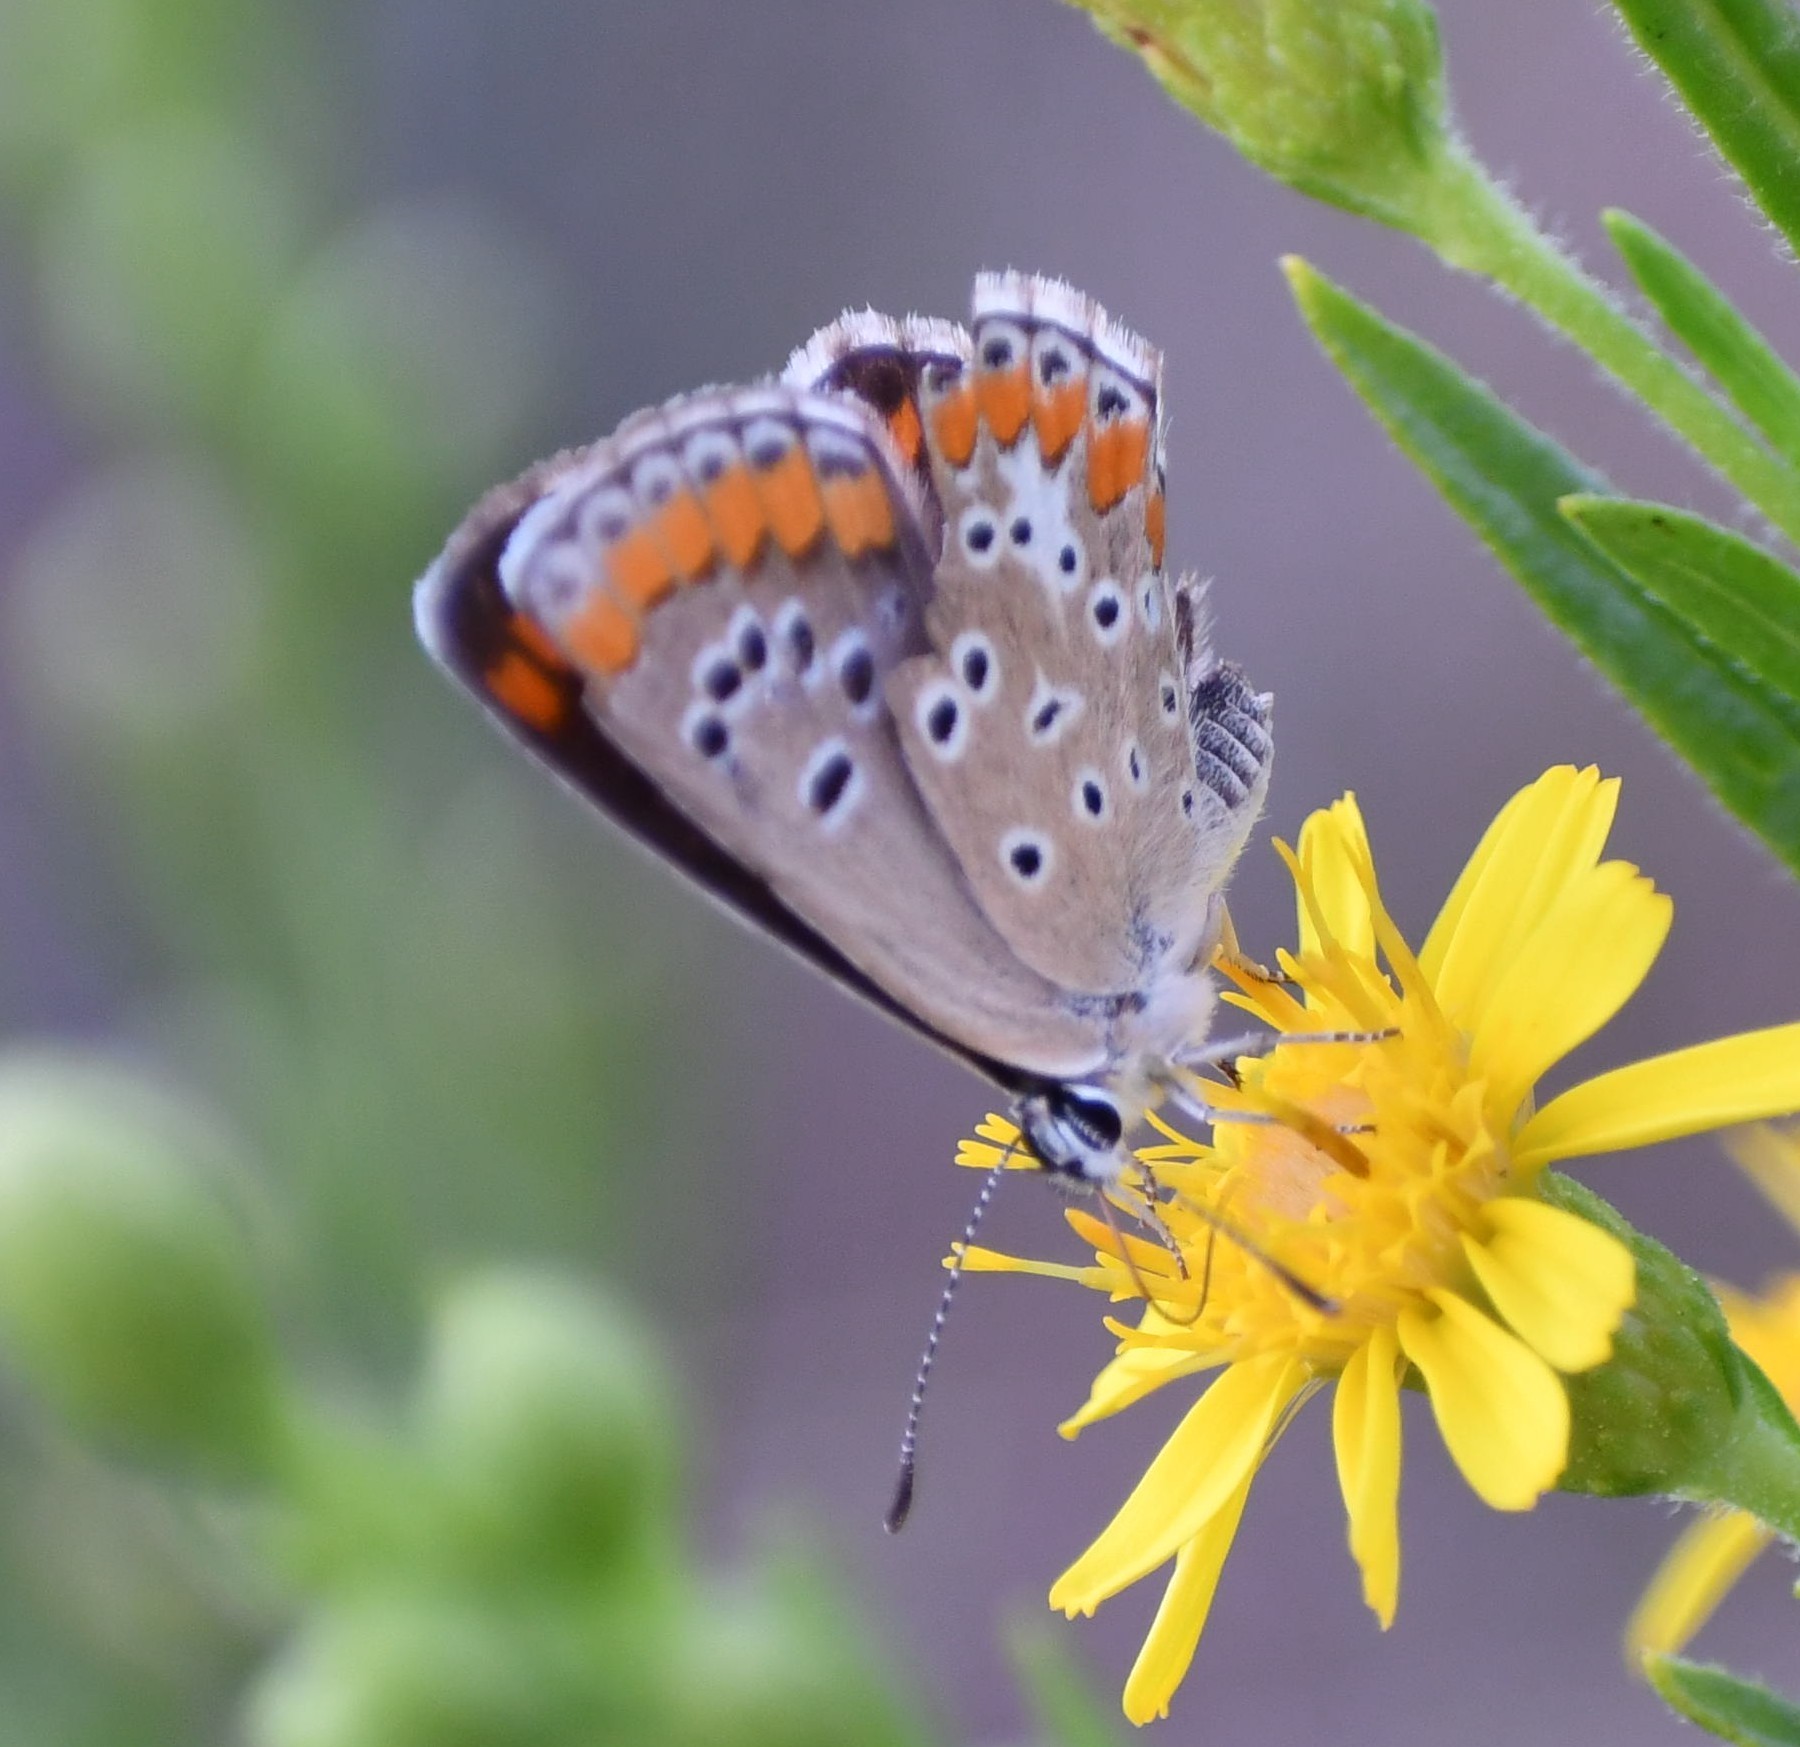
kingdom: Animalia
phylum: Arthropoda
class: Insecta
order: Lepidoptera
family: Lycaenidae
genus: Aricia
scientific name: Aricia agestis
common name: Brown argus
